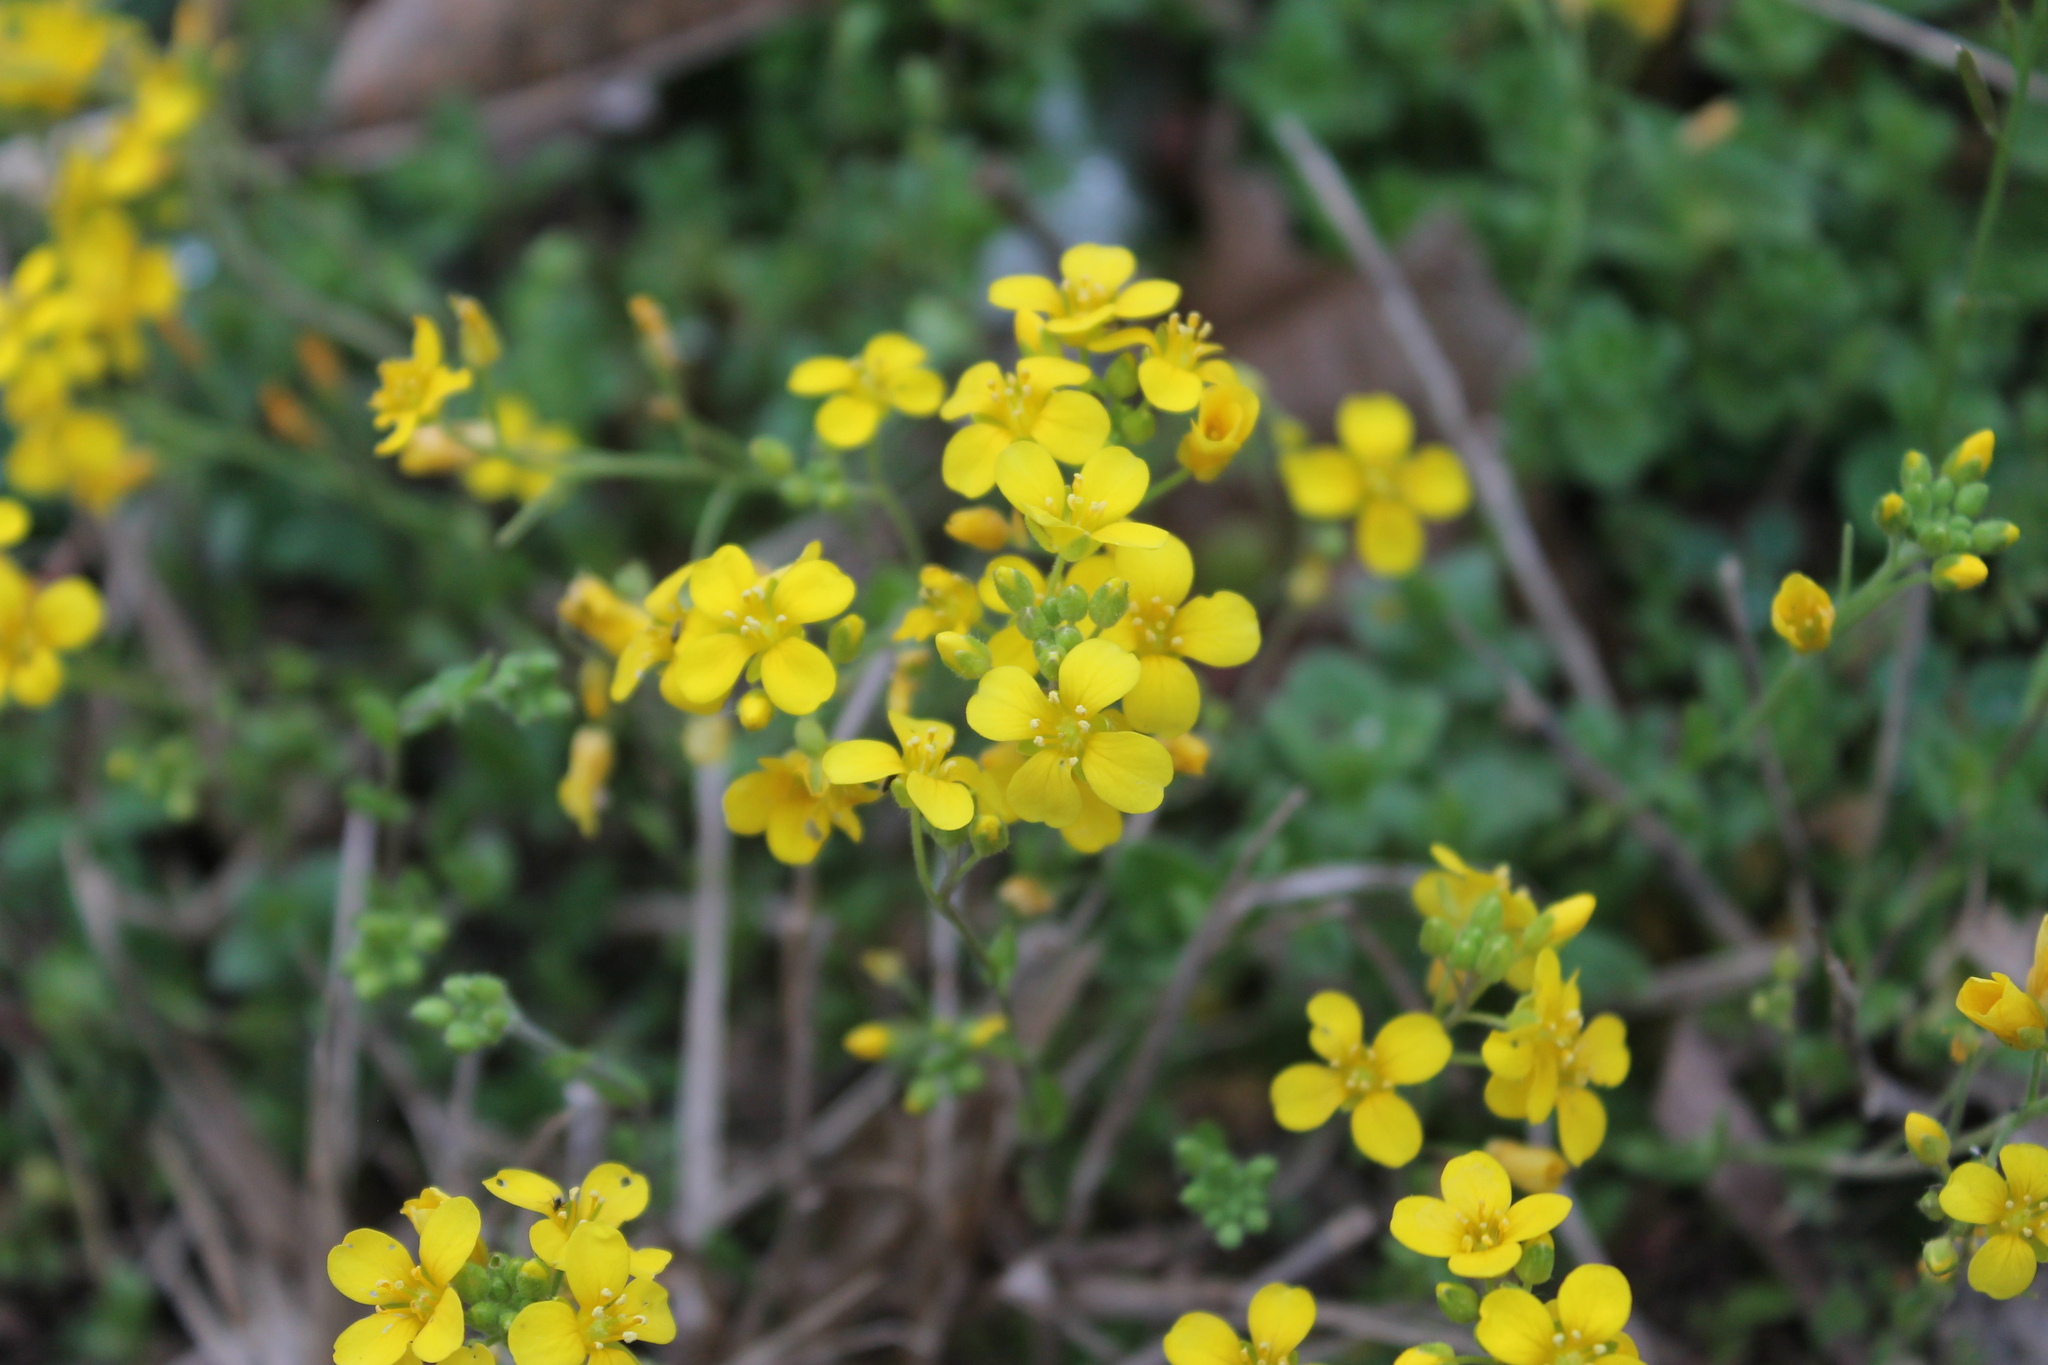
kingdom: Plantae
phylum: Tracheophyta
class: Magnoliopsida
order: Brassicales
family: Brassicaceae
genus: Paysonia
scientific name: Paysonia lescurii
